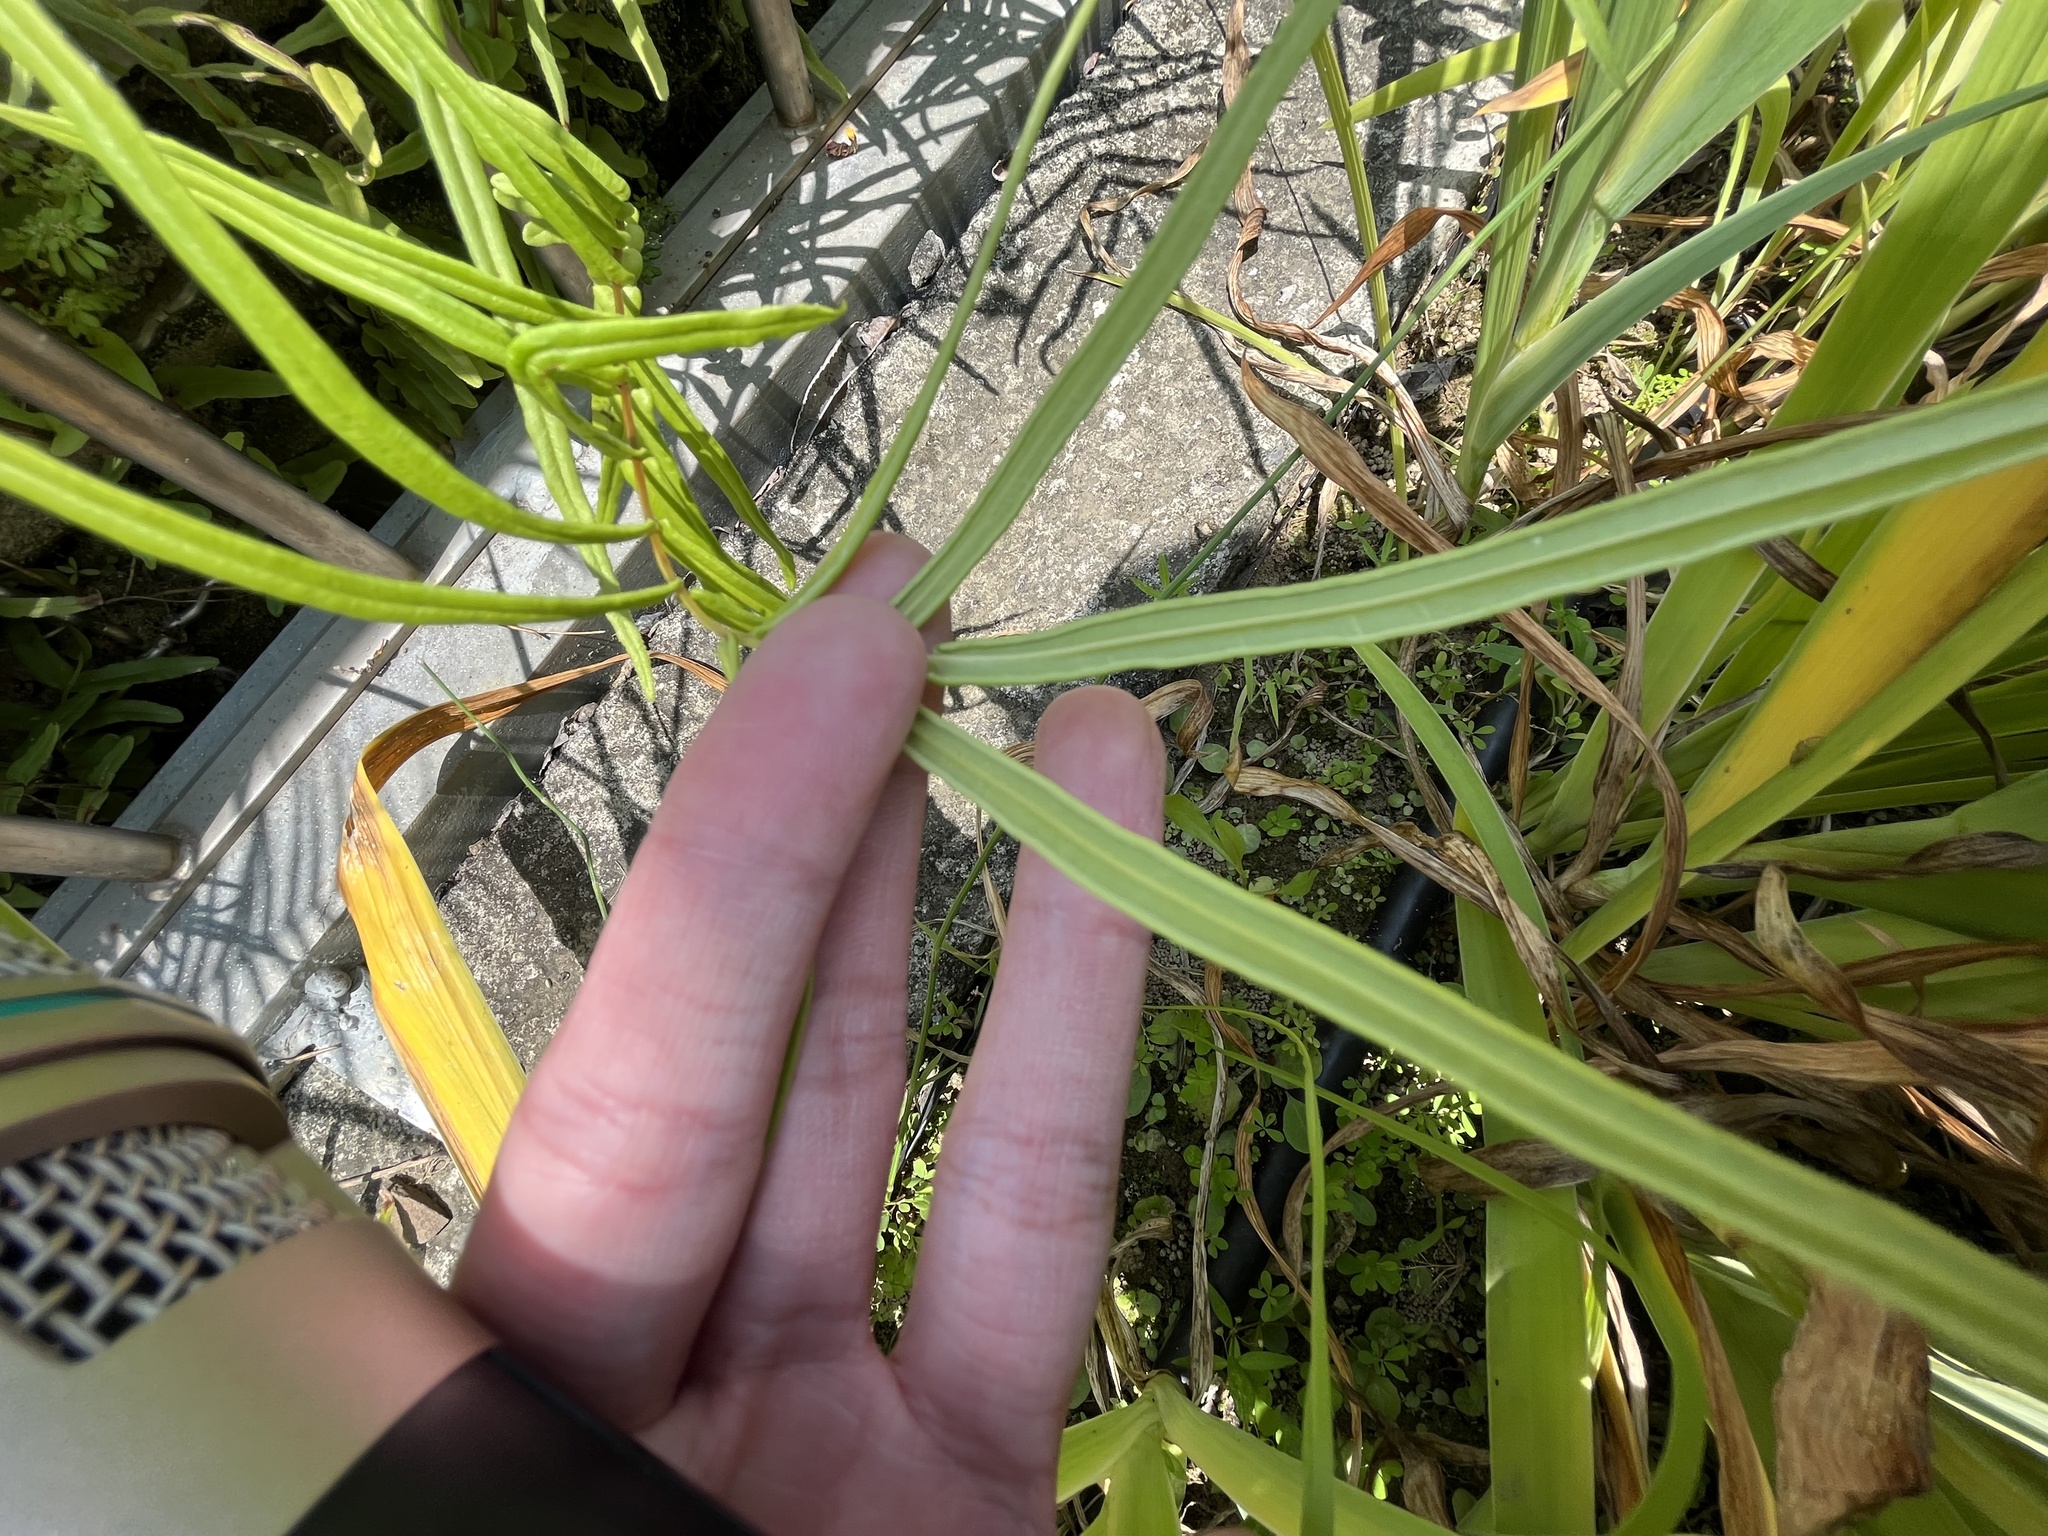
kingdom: Plantae
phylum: Tracheophyta
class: Polypodiopsida
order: Polypodiales
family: Pteridaceae
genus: Pteris
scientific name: Pteris vittata
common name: Ladder brake
